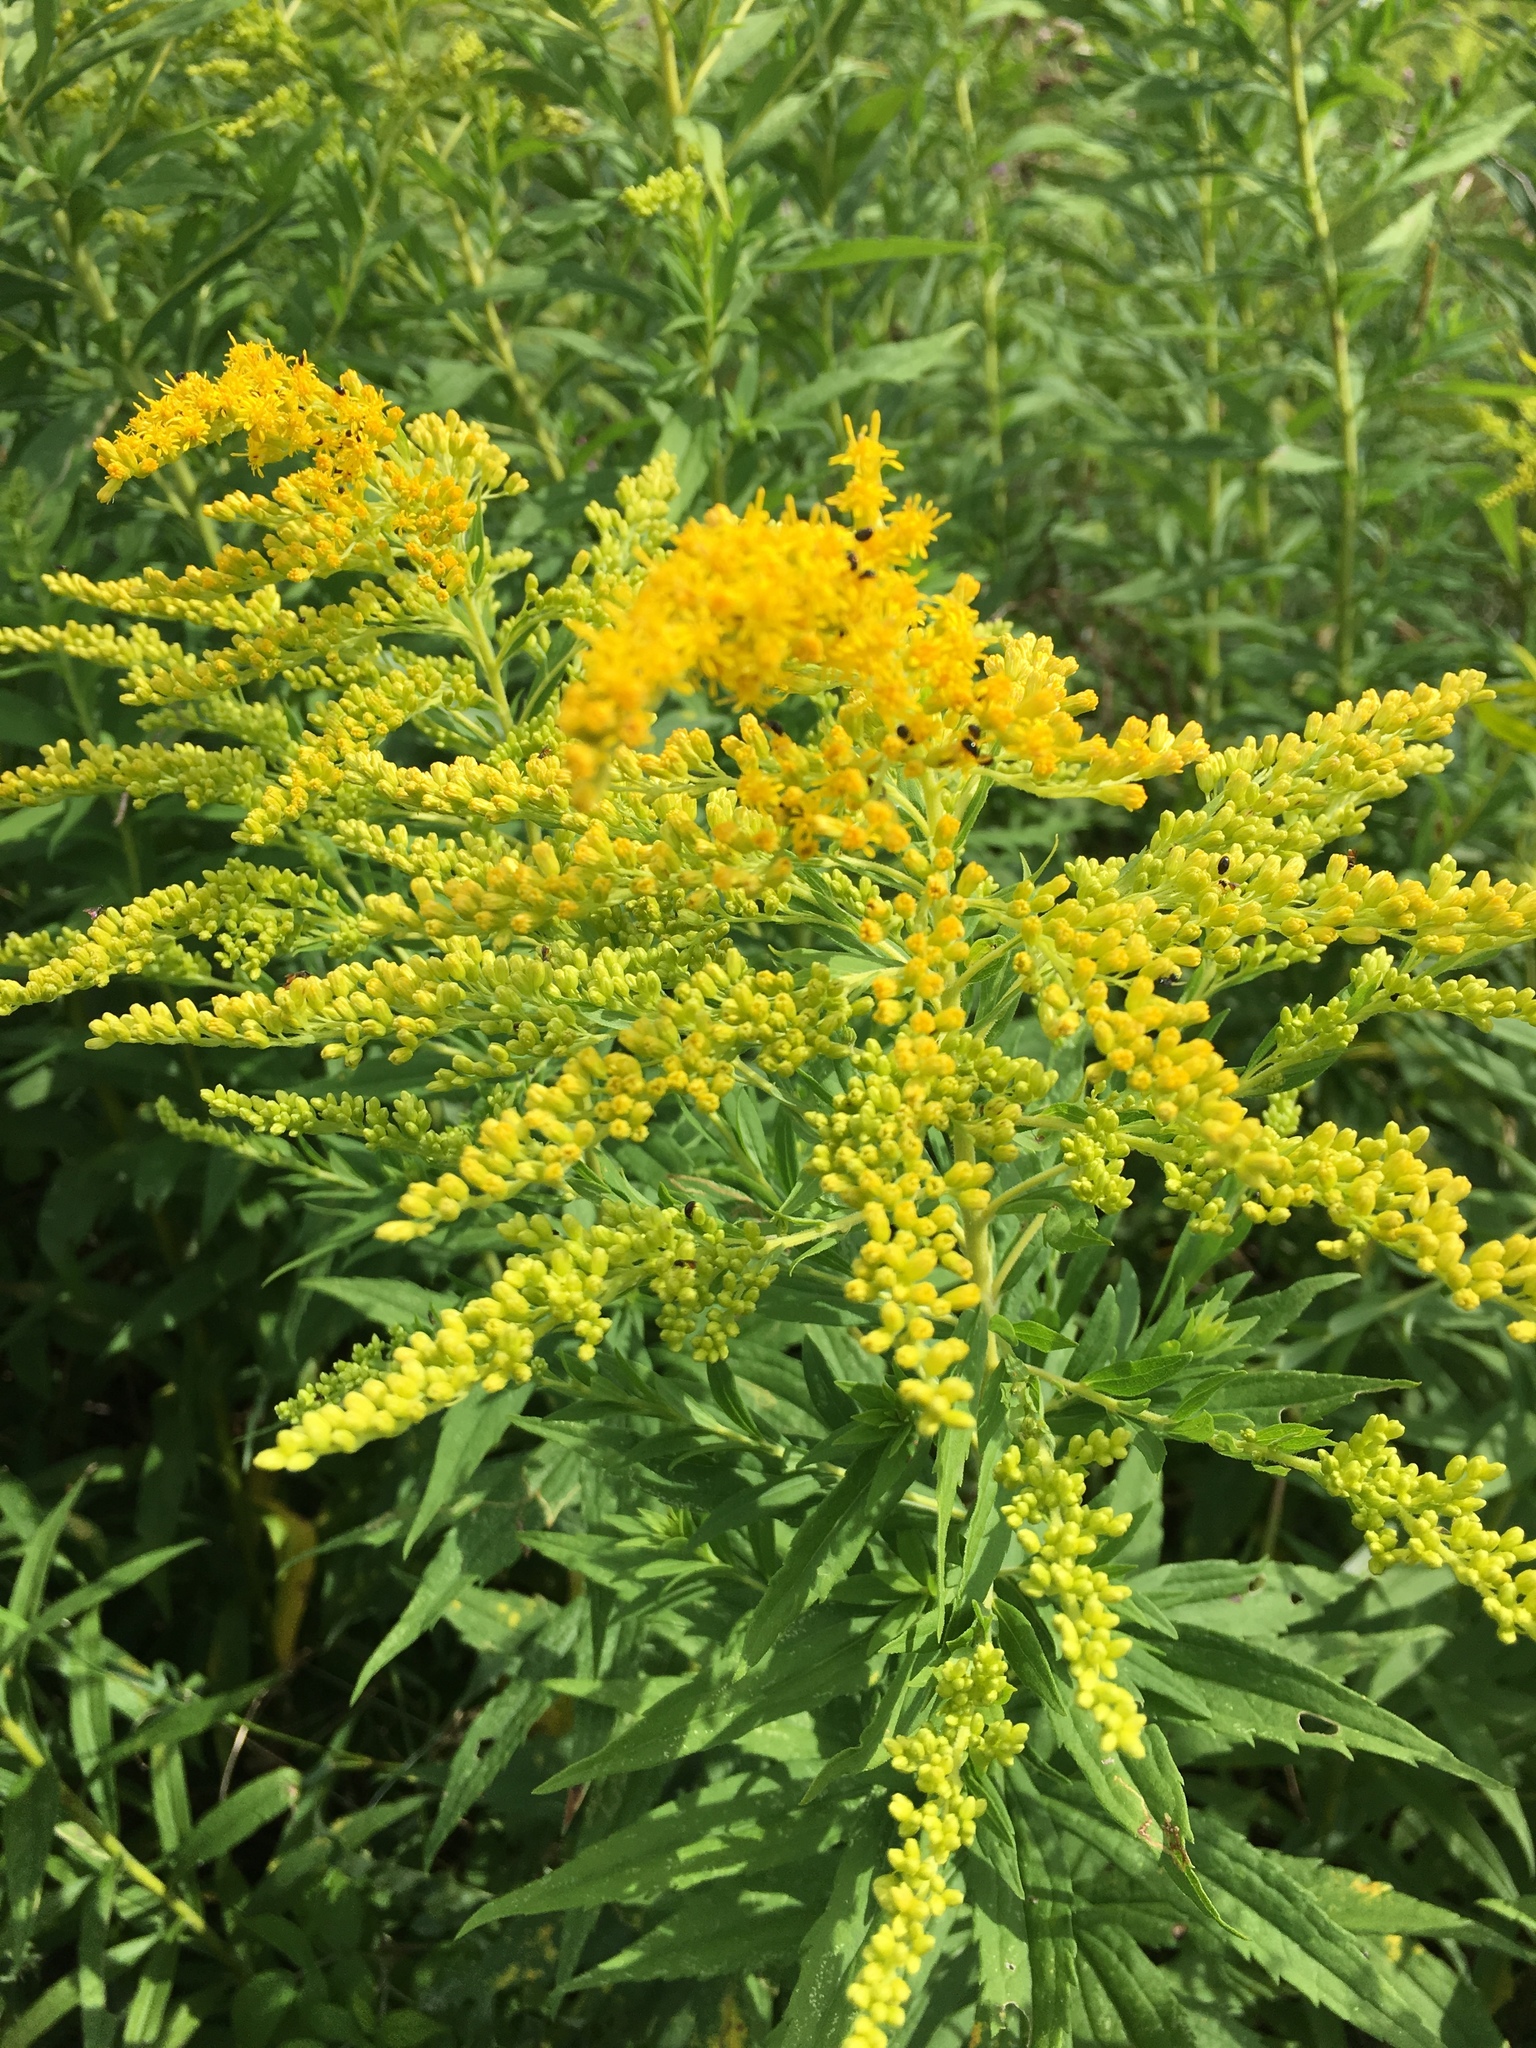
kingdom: Plantae
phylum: Tracheophyta
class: Magnoliopsida
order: Asterales
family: Asteraceae
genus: Solidago
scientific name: Solidago altissima
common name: Late goldenrod
